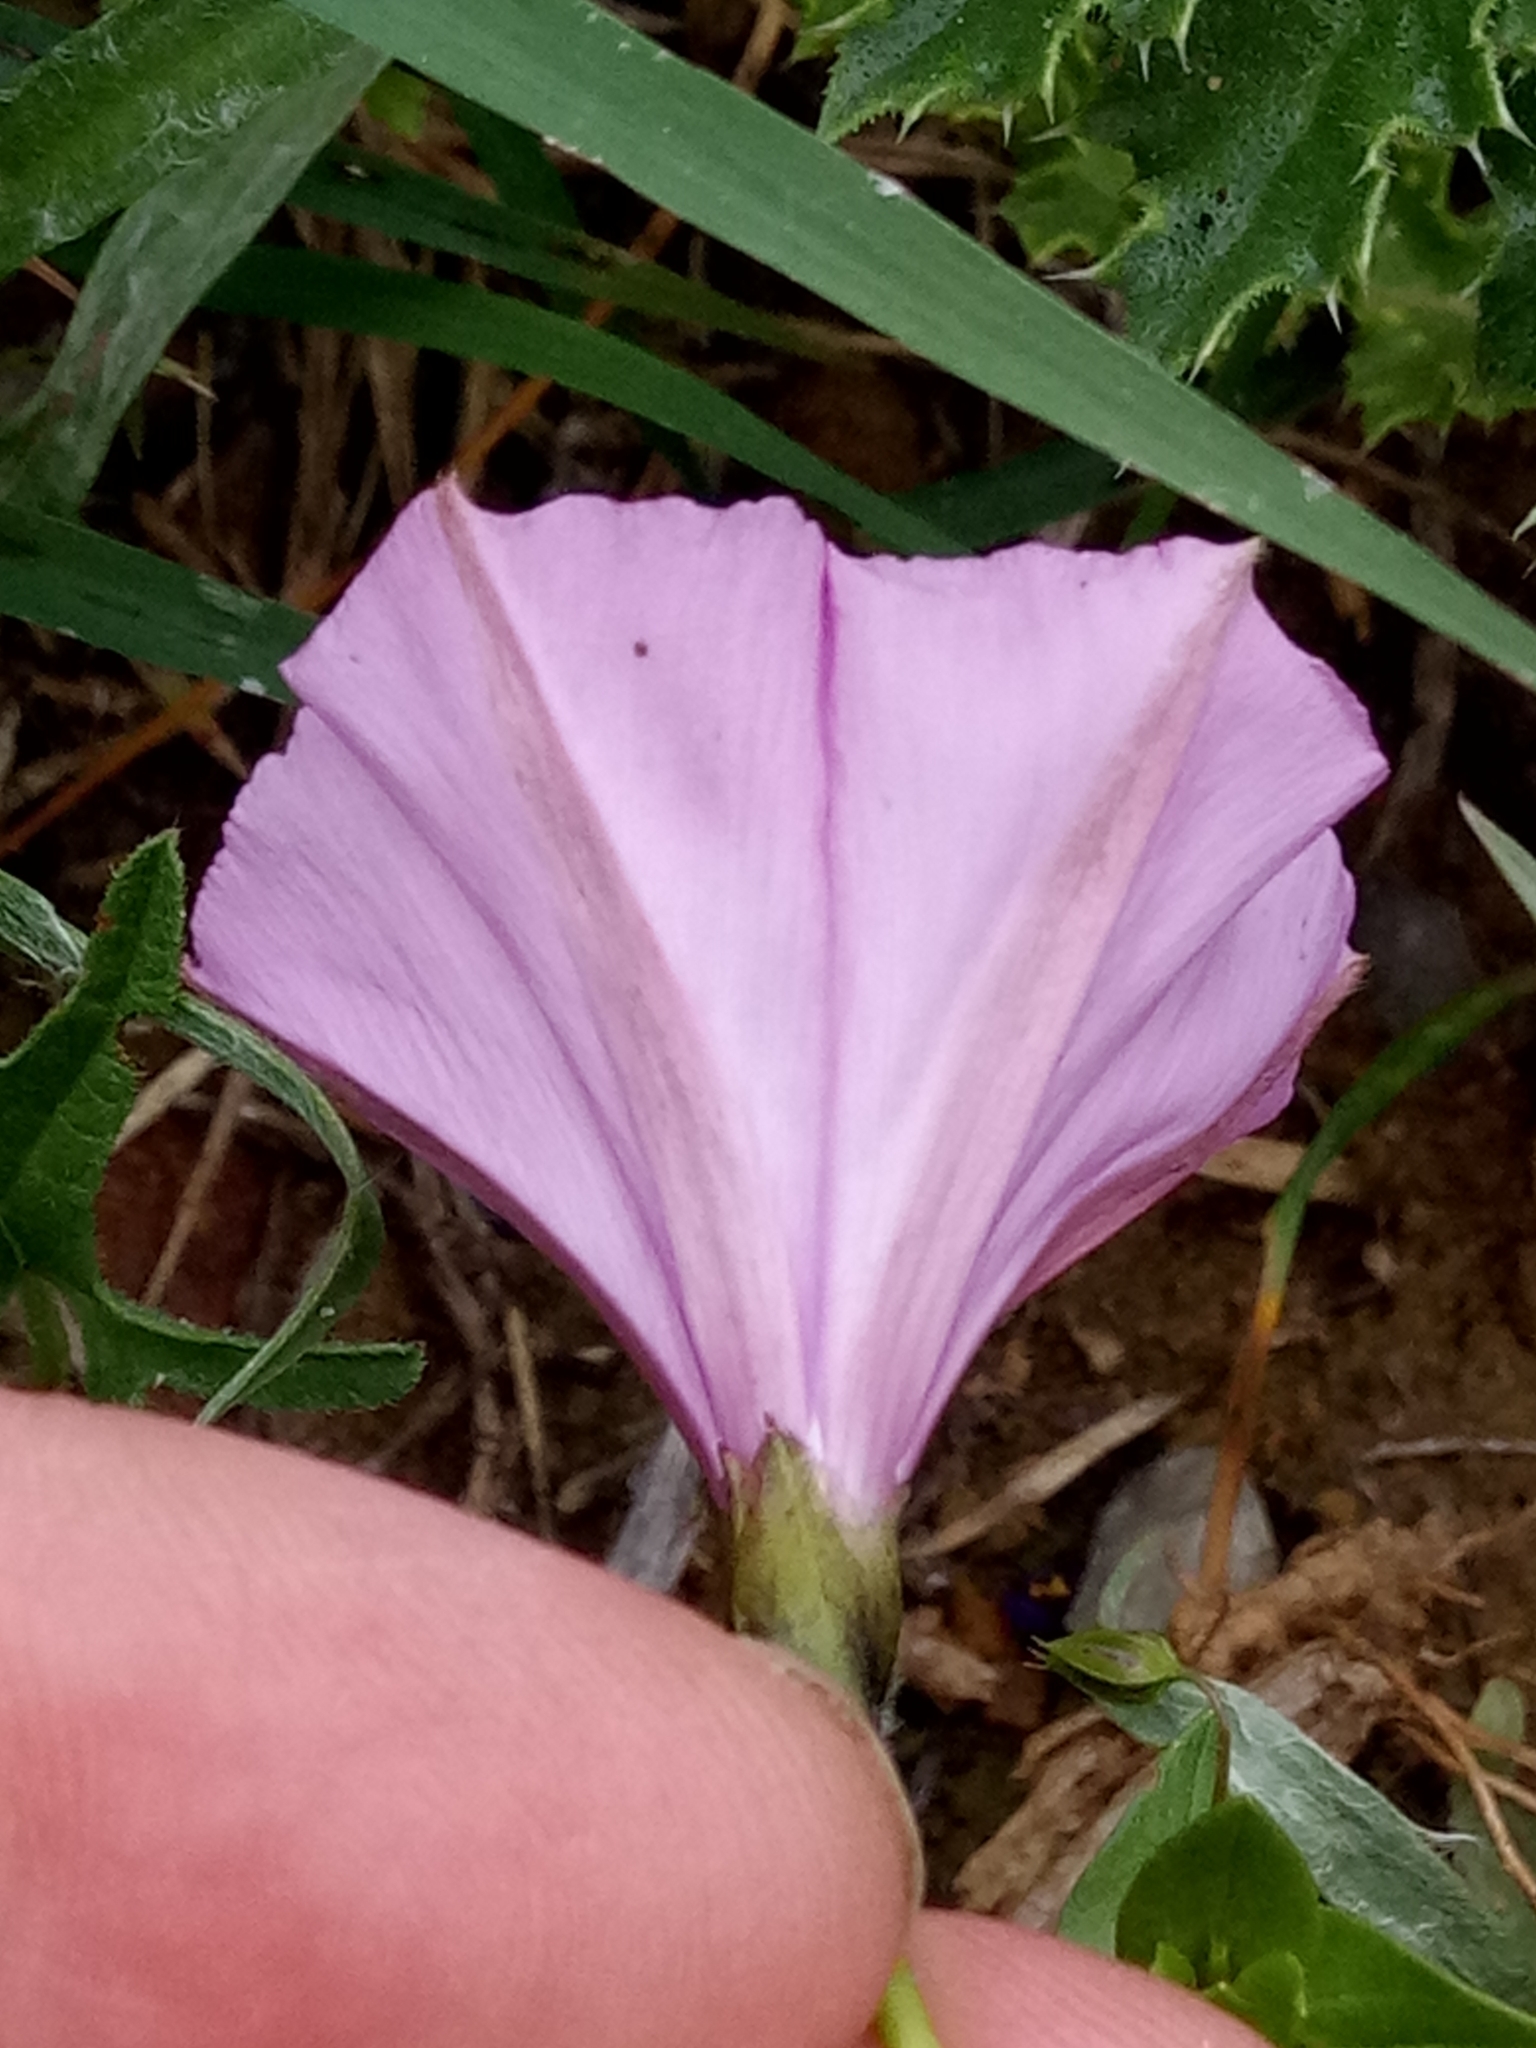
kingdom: Plantae
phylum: Tracheophyta
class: Magnoliopsida
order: Solanales
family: Convolvulaceae
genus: Convolvulus
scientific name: Convolvulus althaeoides
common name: Mallow bindweed
